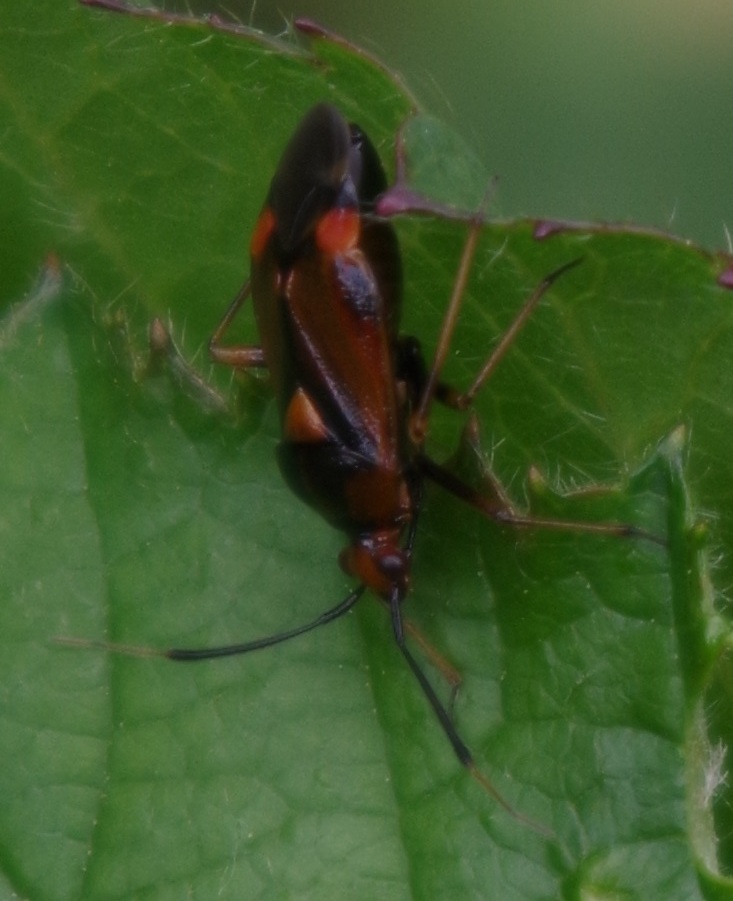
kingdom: Animalia
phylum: Arthropoda
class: Insecta
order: Hemiptera
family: Miridae
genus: Deraeocoris
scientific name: Deraeocoris ruber
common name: Plant bug
